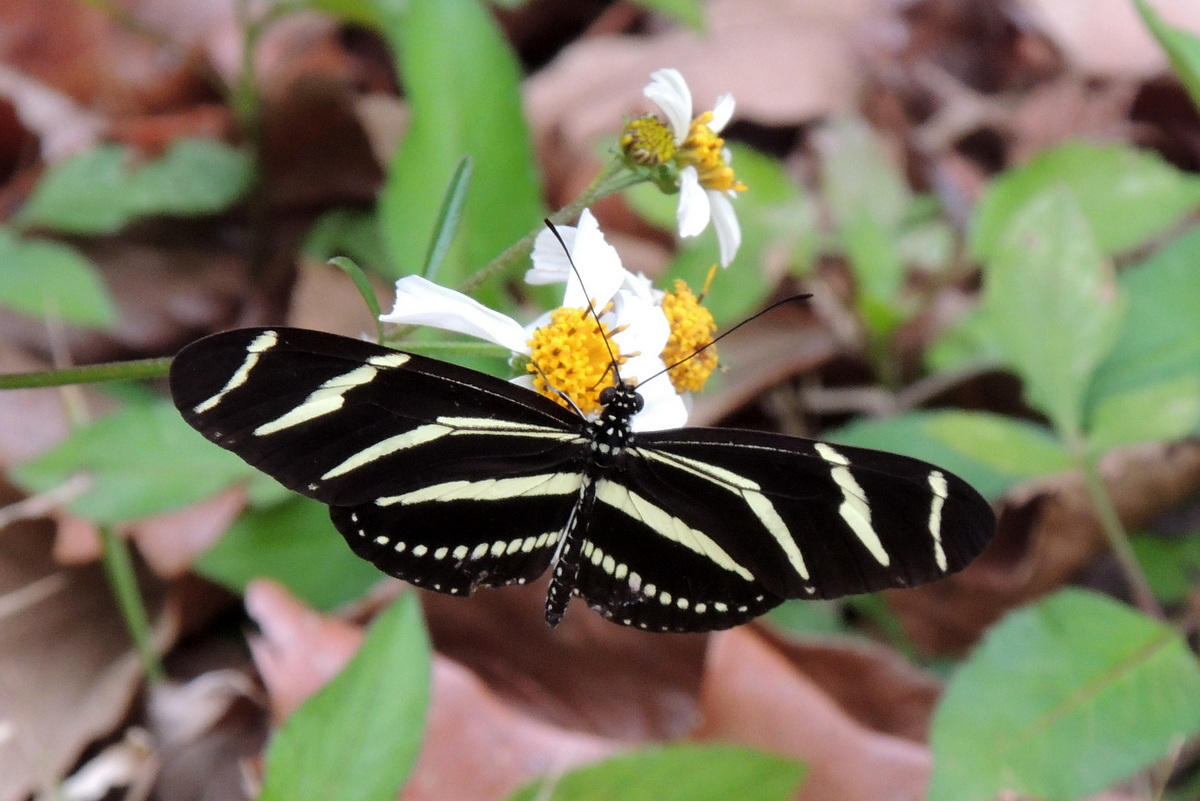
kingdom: Animalia
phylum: Arthropoda
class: Insecta
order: Lepidoptera
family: Nymphalidae
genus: Heliconius
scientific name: Heliconius charithonia
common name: Zebra long wing
